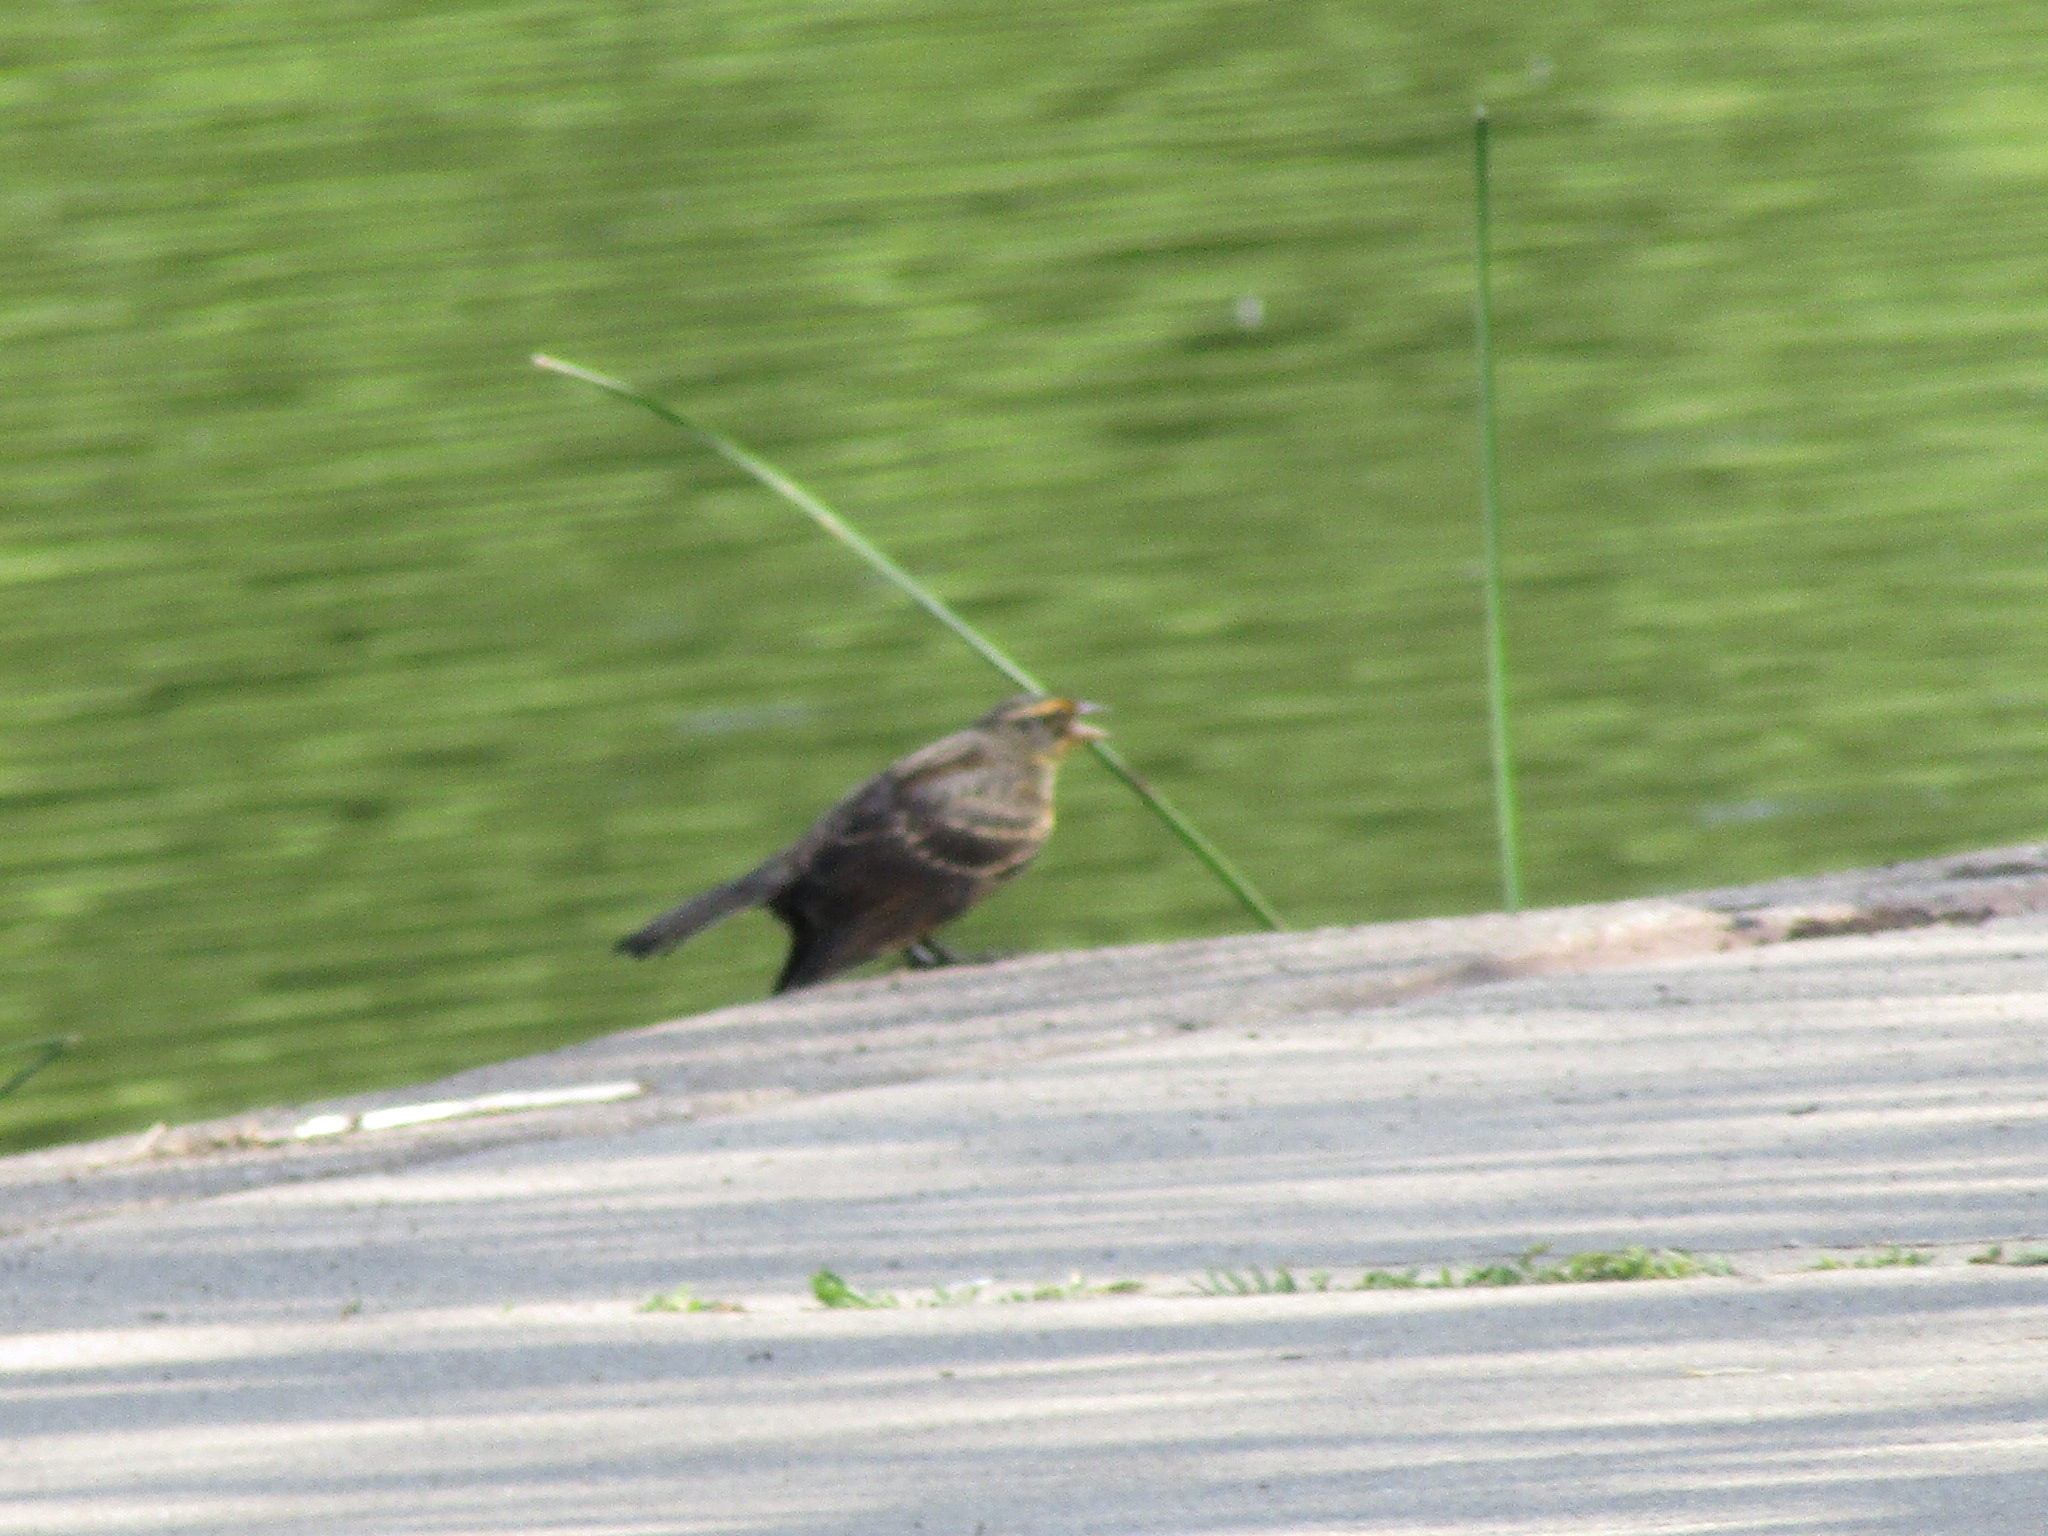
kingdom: Animalia
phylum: Chordata
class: Aves
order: Passeriformes
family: Icteridae
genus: Agelaius
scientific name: Agelaius phoeniceus
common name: Red-winged blackbird
